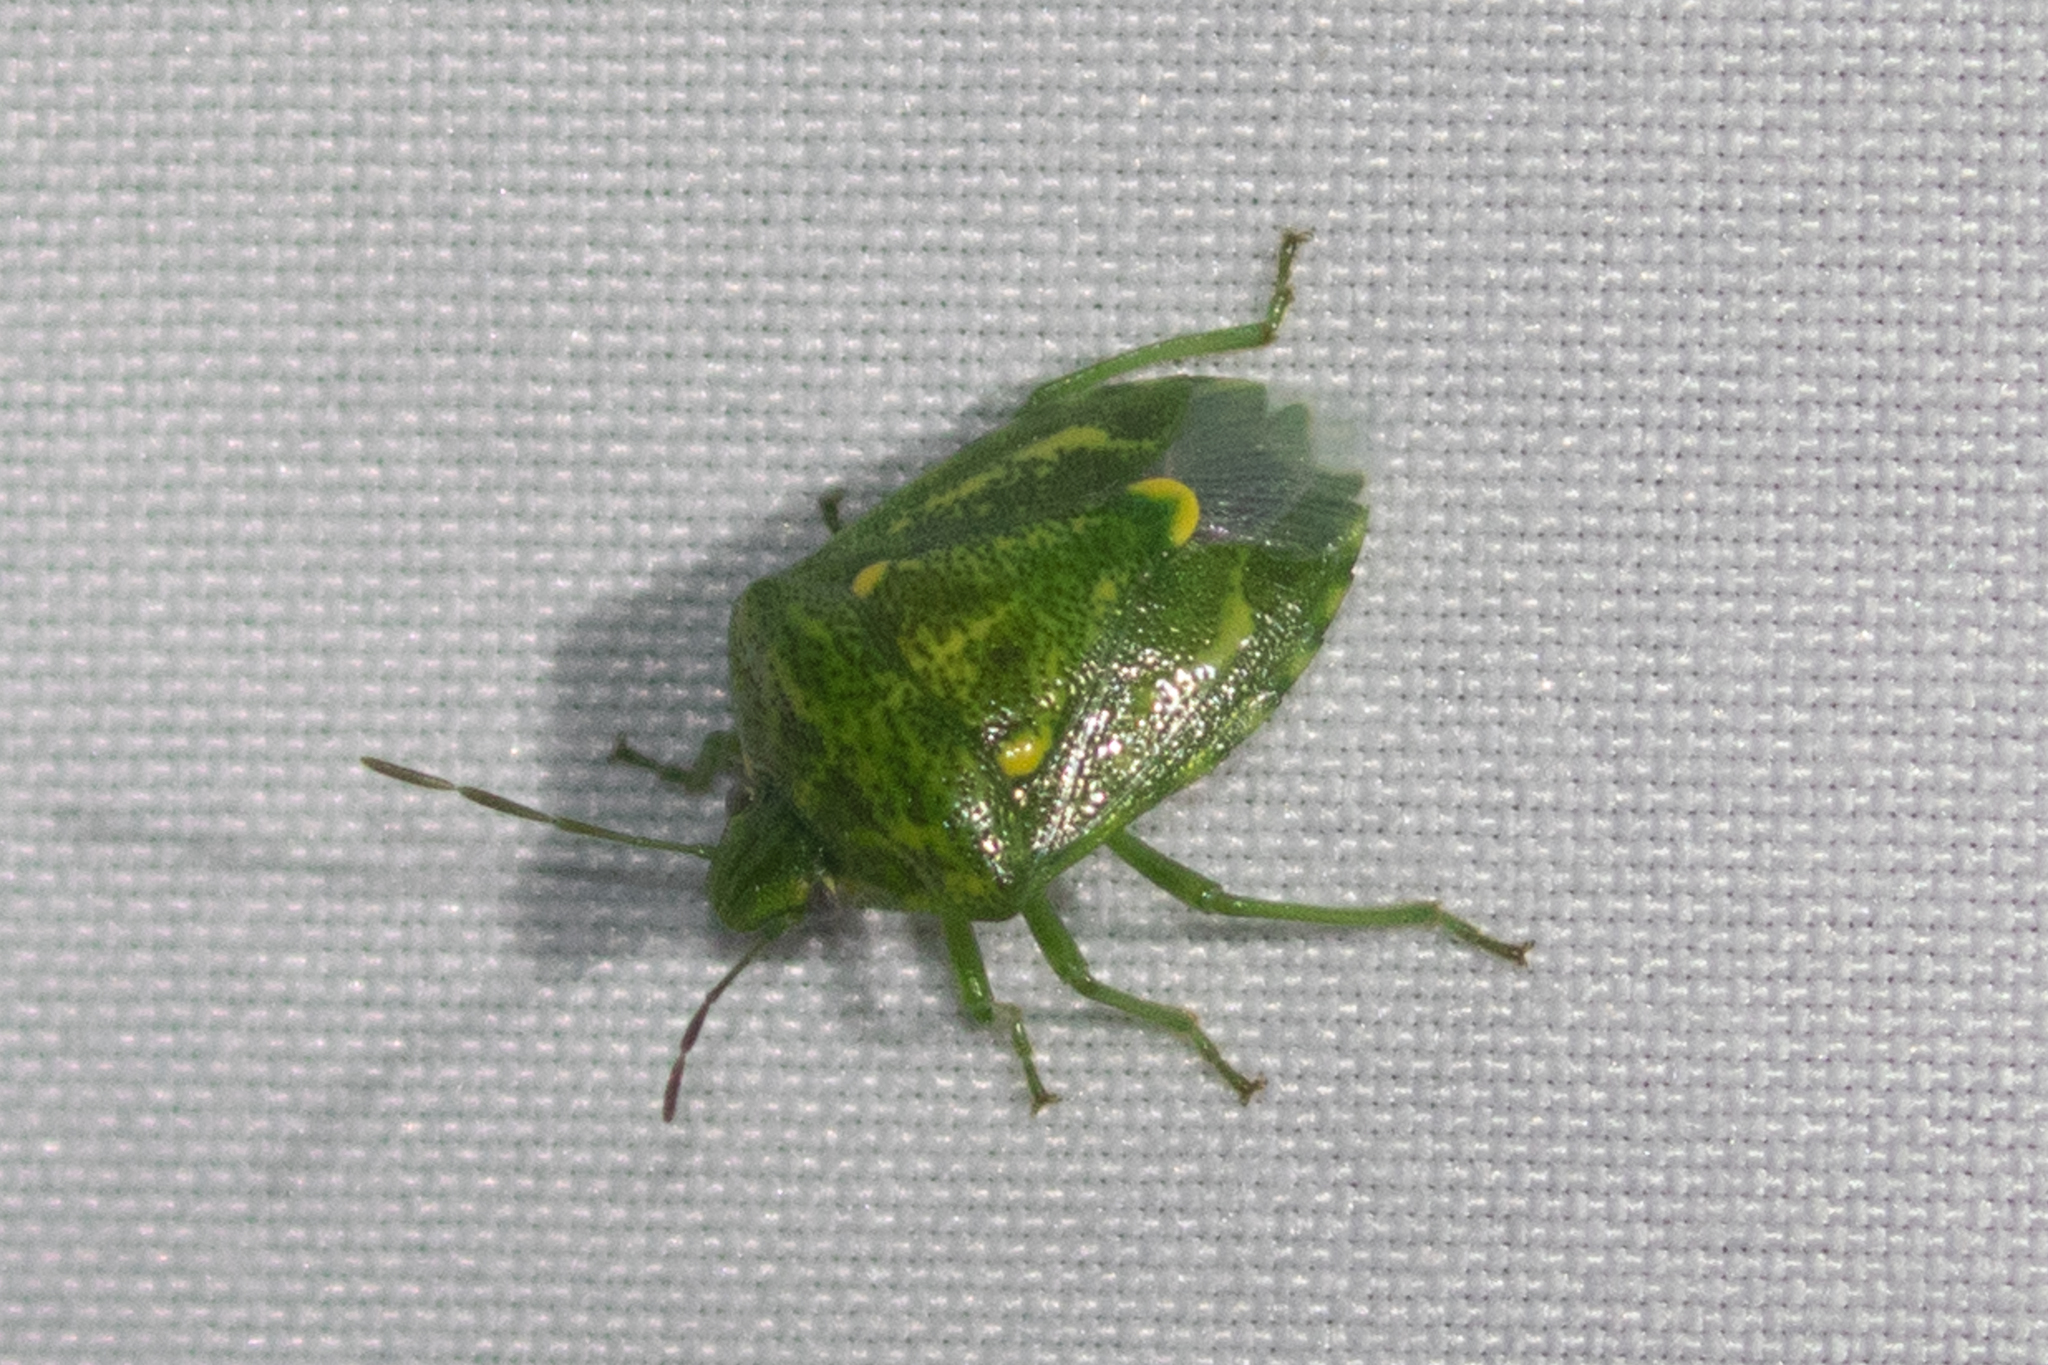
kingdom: Animalia
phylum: Arthropoda
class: Insecta
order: Hemiptera
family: Pentatomidae
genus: Banasa
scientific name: Banasa euchlora
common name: Cedar berry bug
